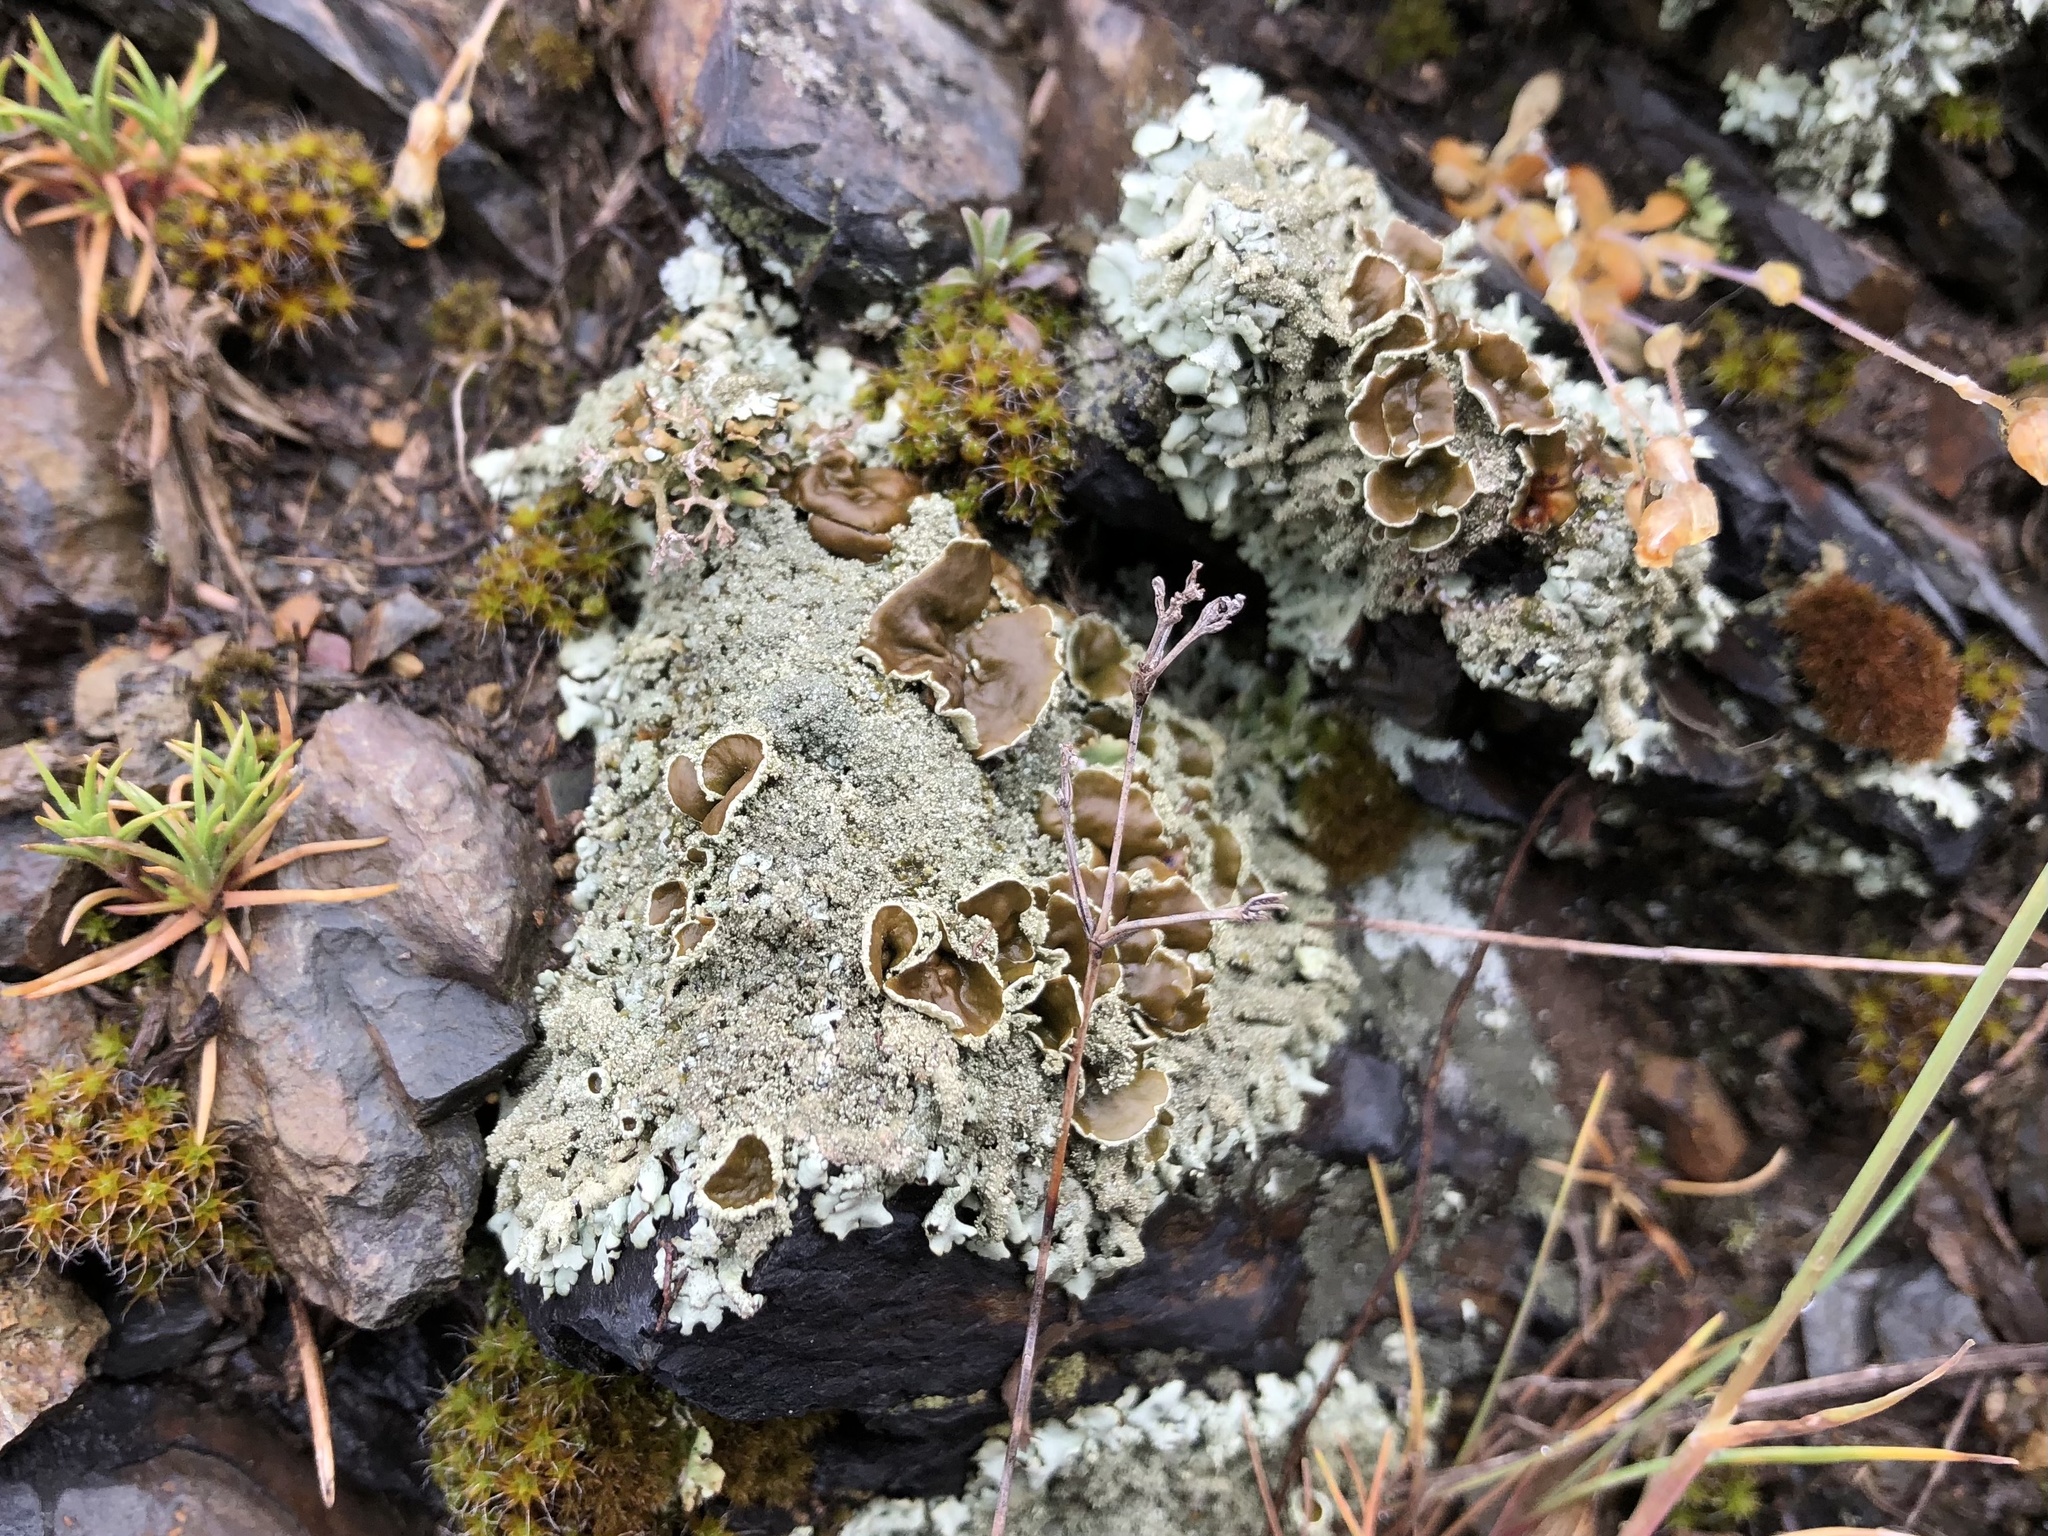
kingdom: Fungi
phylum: Ascomycota
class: Lecanoromycetes
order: Lecanorales
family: Parmeliaceae
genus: Xanthoparmelia
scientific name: Xanthoparmelia conspersa
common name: Peppered rock shield
